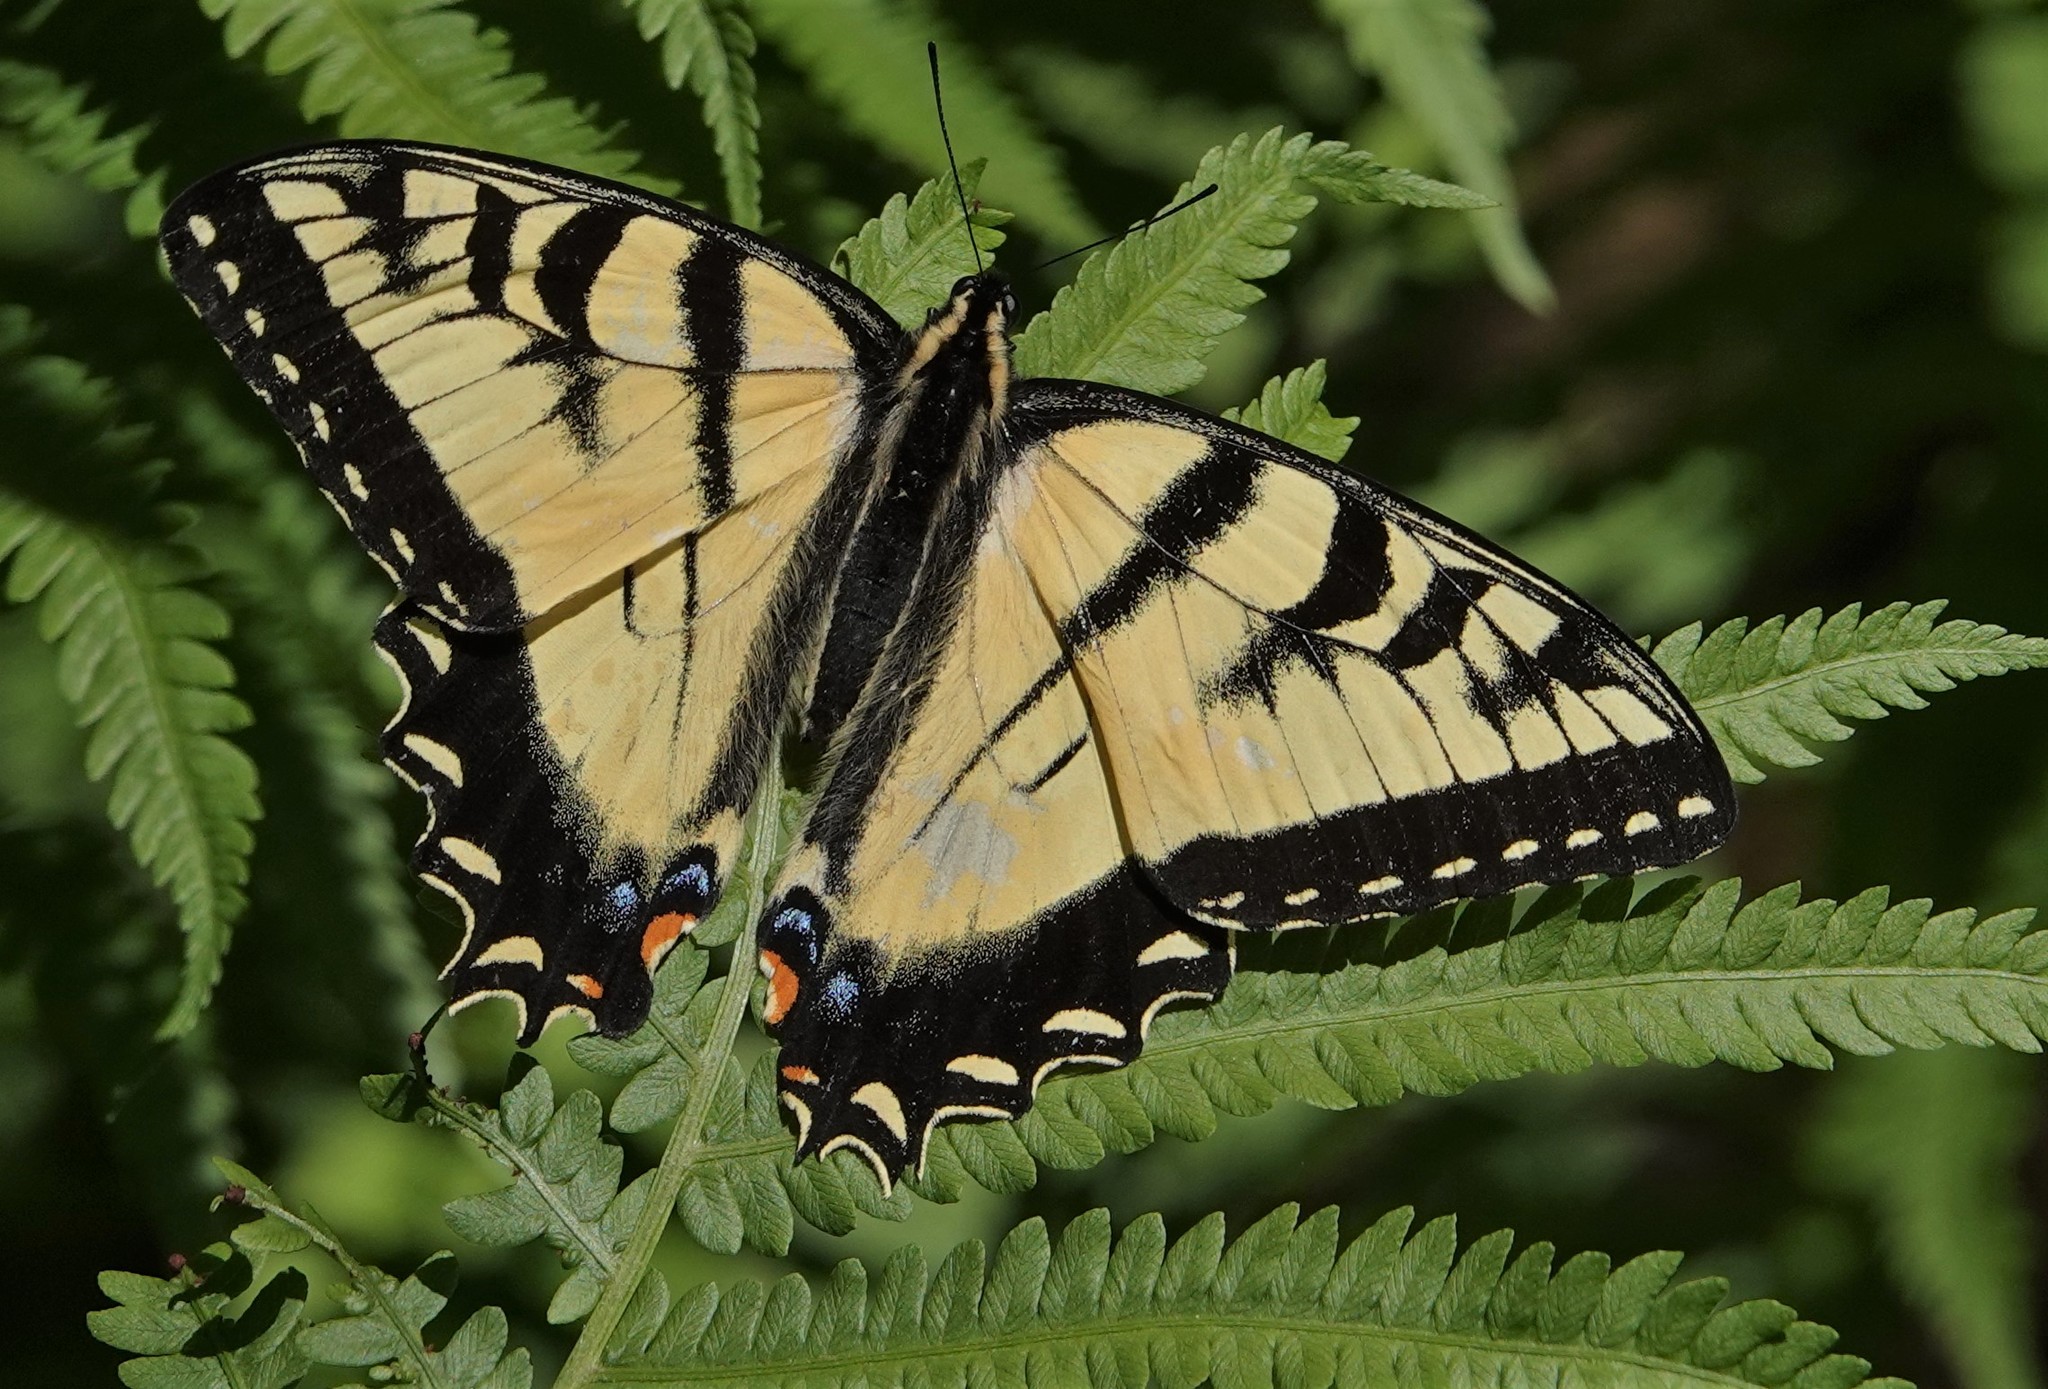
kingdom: Animalia
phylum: Arthropoda
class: Insecta
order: Lepidoptera
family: Papilionidae
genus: Pterourus
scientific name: Pterourus
